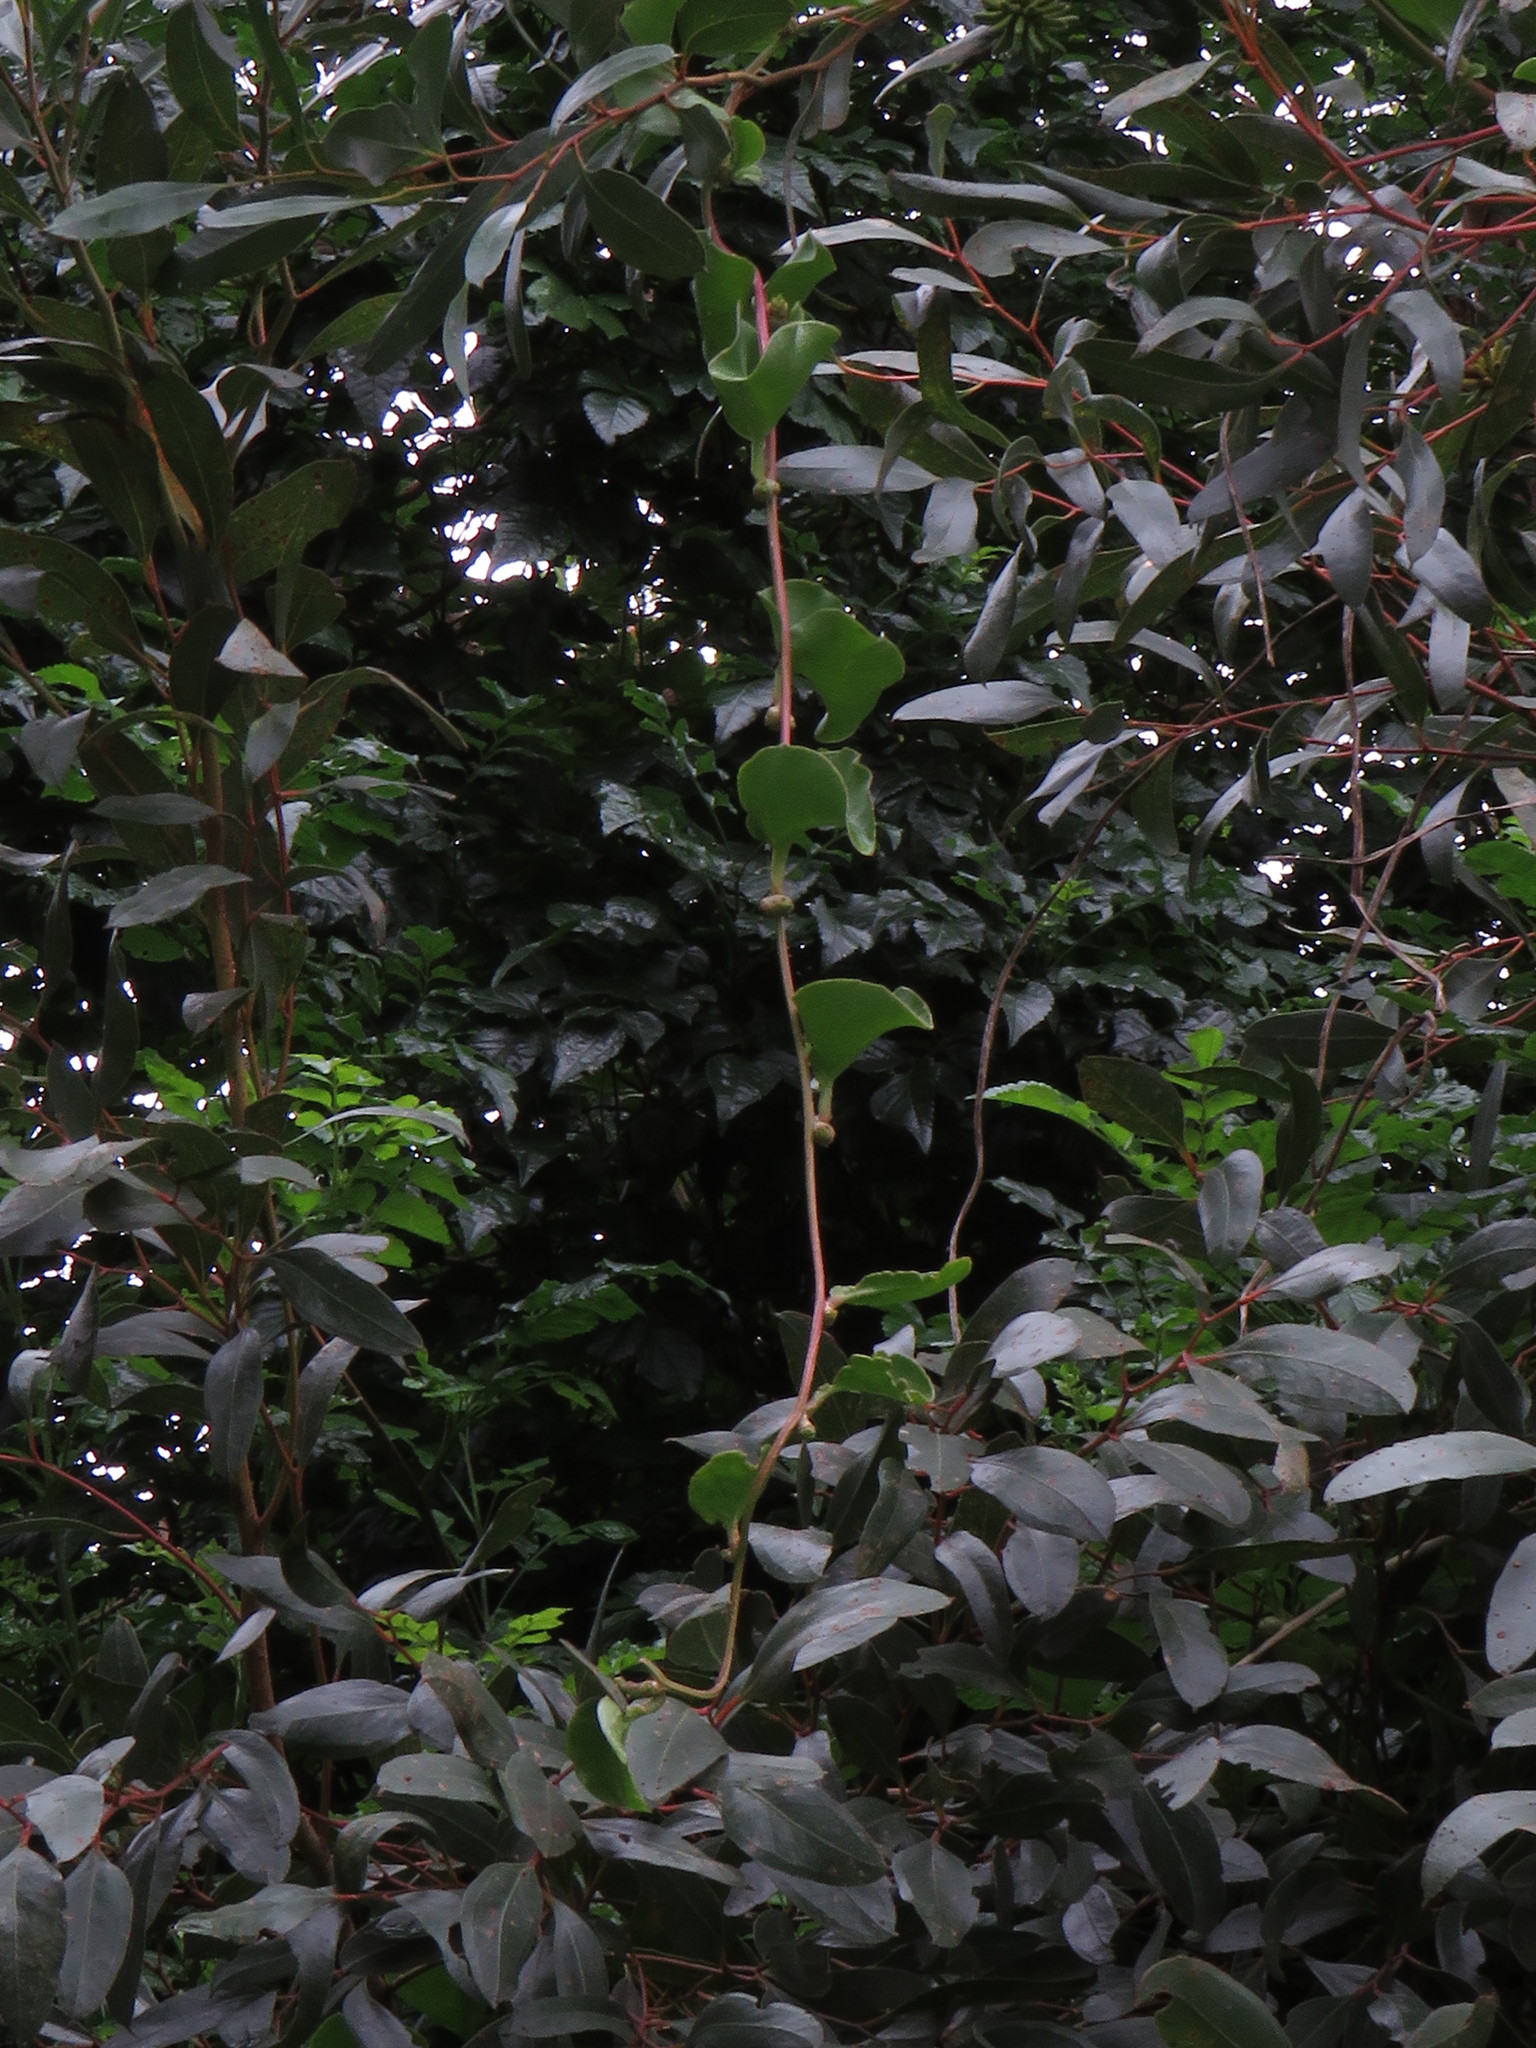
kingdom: Plantae
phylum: Tracheophyta
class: Magnoliopsida
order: Caryophyllales
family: Basellaceae
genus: Anredera
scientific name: Anredera cordifolia
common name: Heartleaf madeiravine
